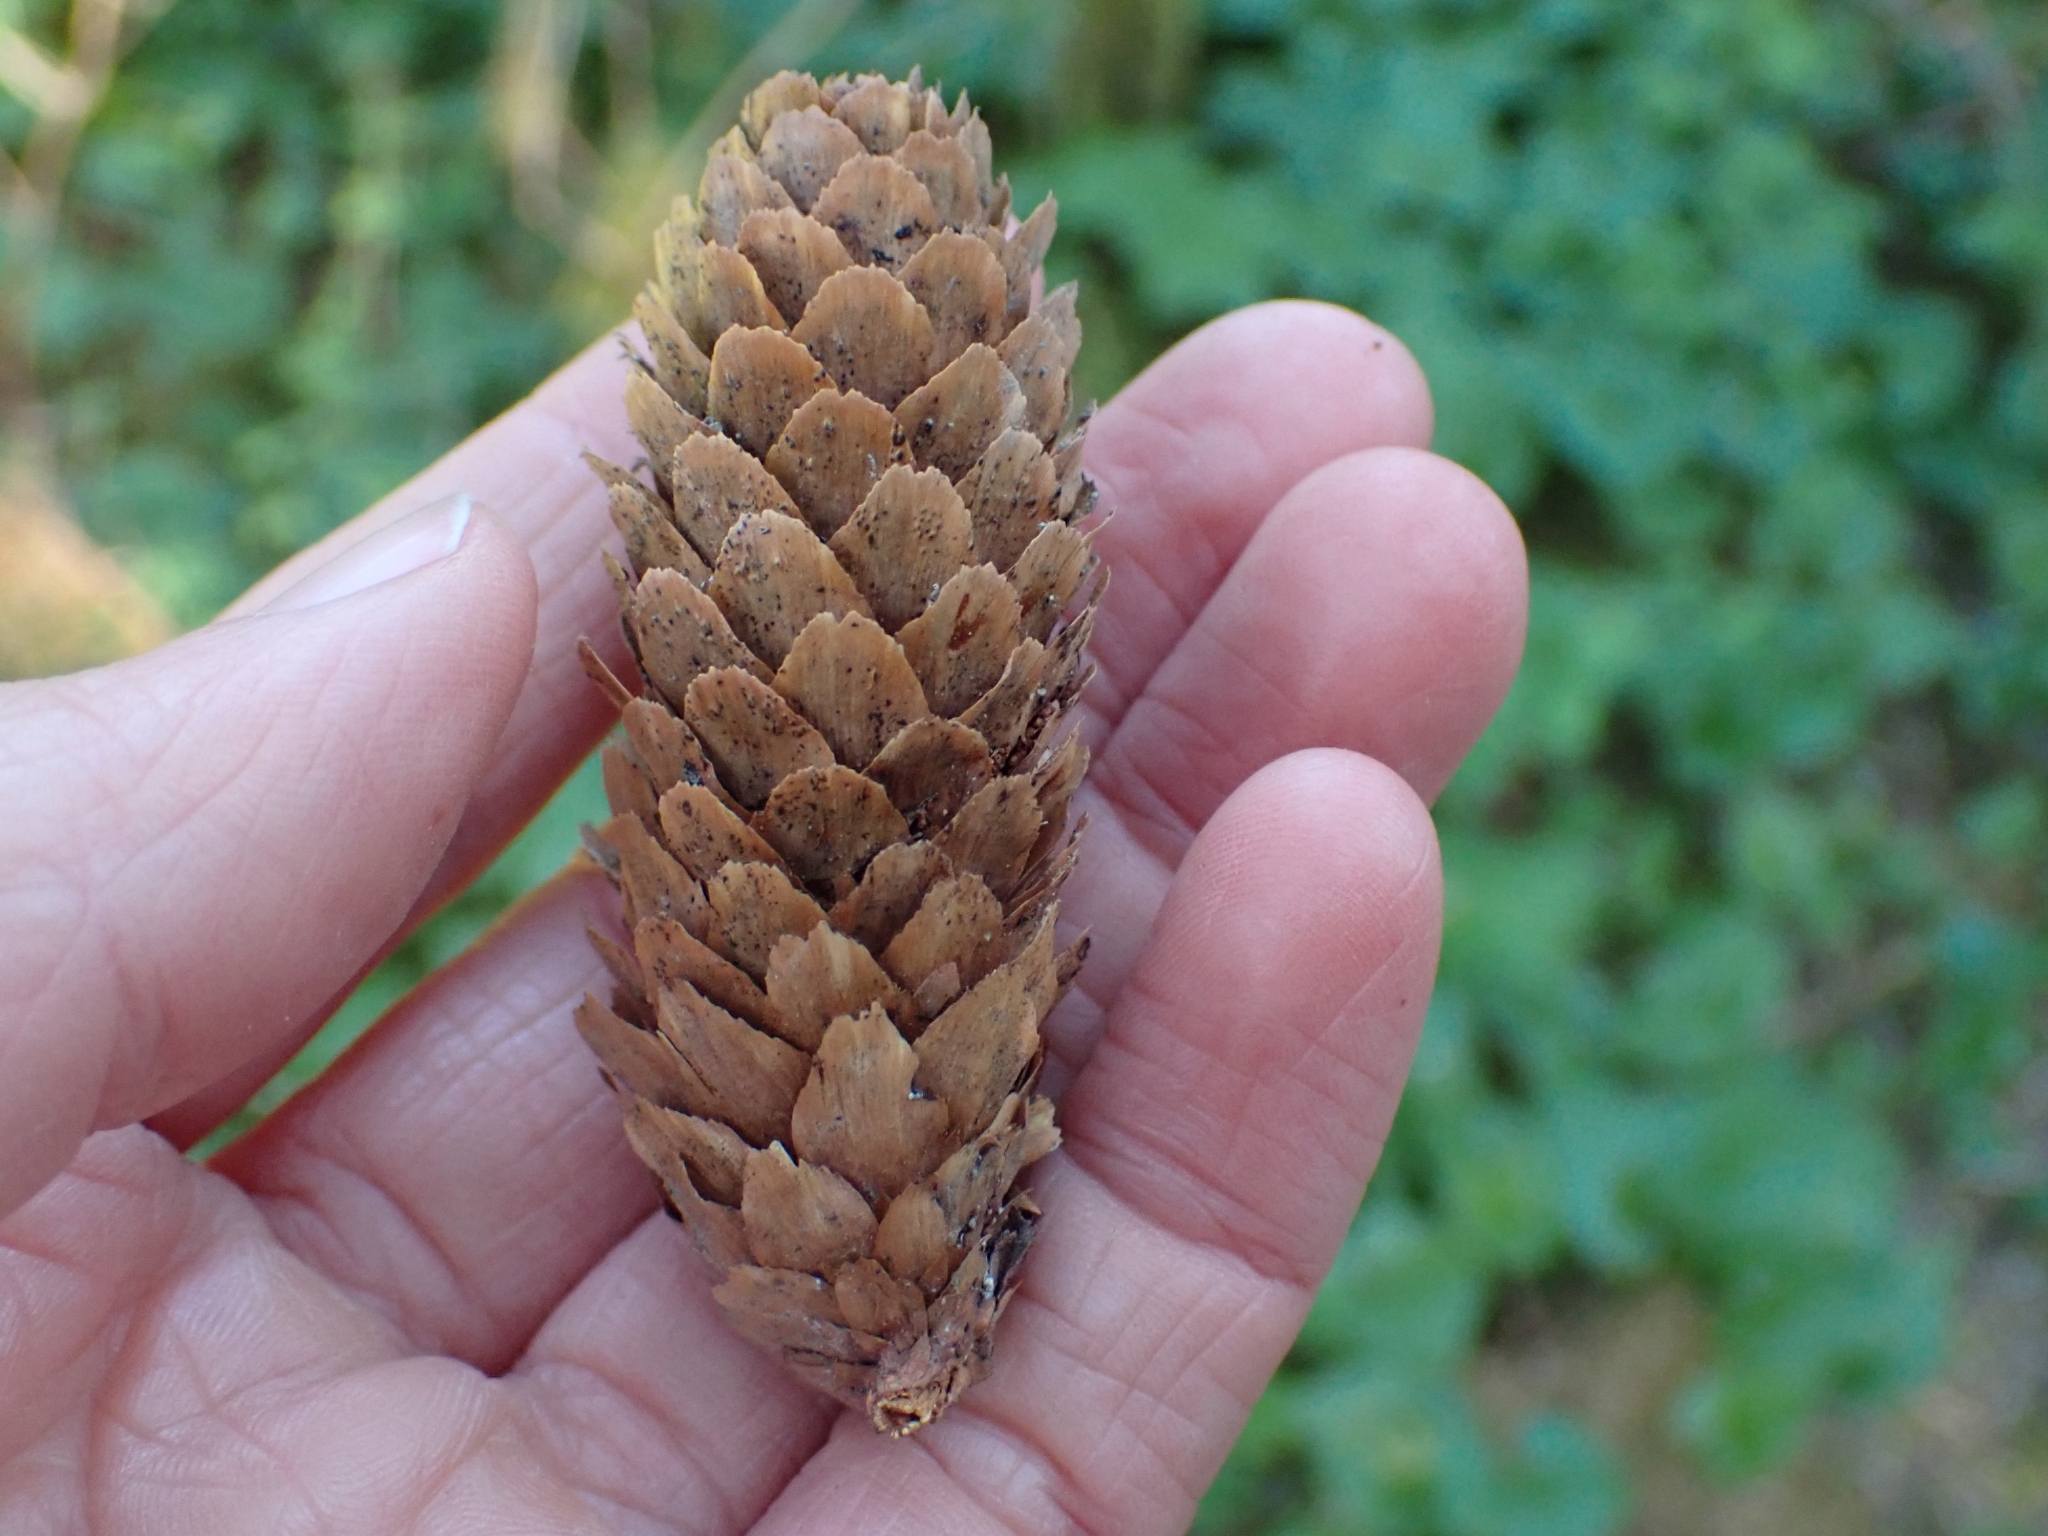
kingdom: Plantae
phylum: Tracheophyta
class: Pinopsida
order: Pinales
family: Pinaceae
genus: Picea
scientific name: Picea sitchensis
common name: Sitka spruce
